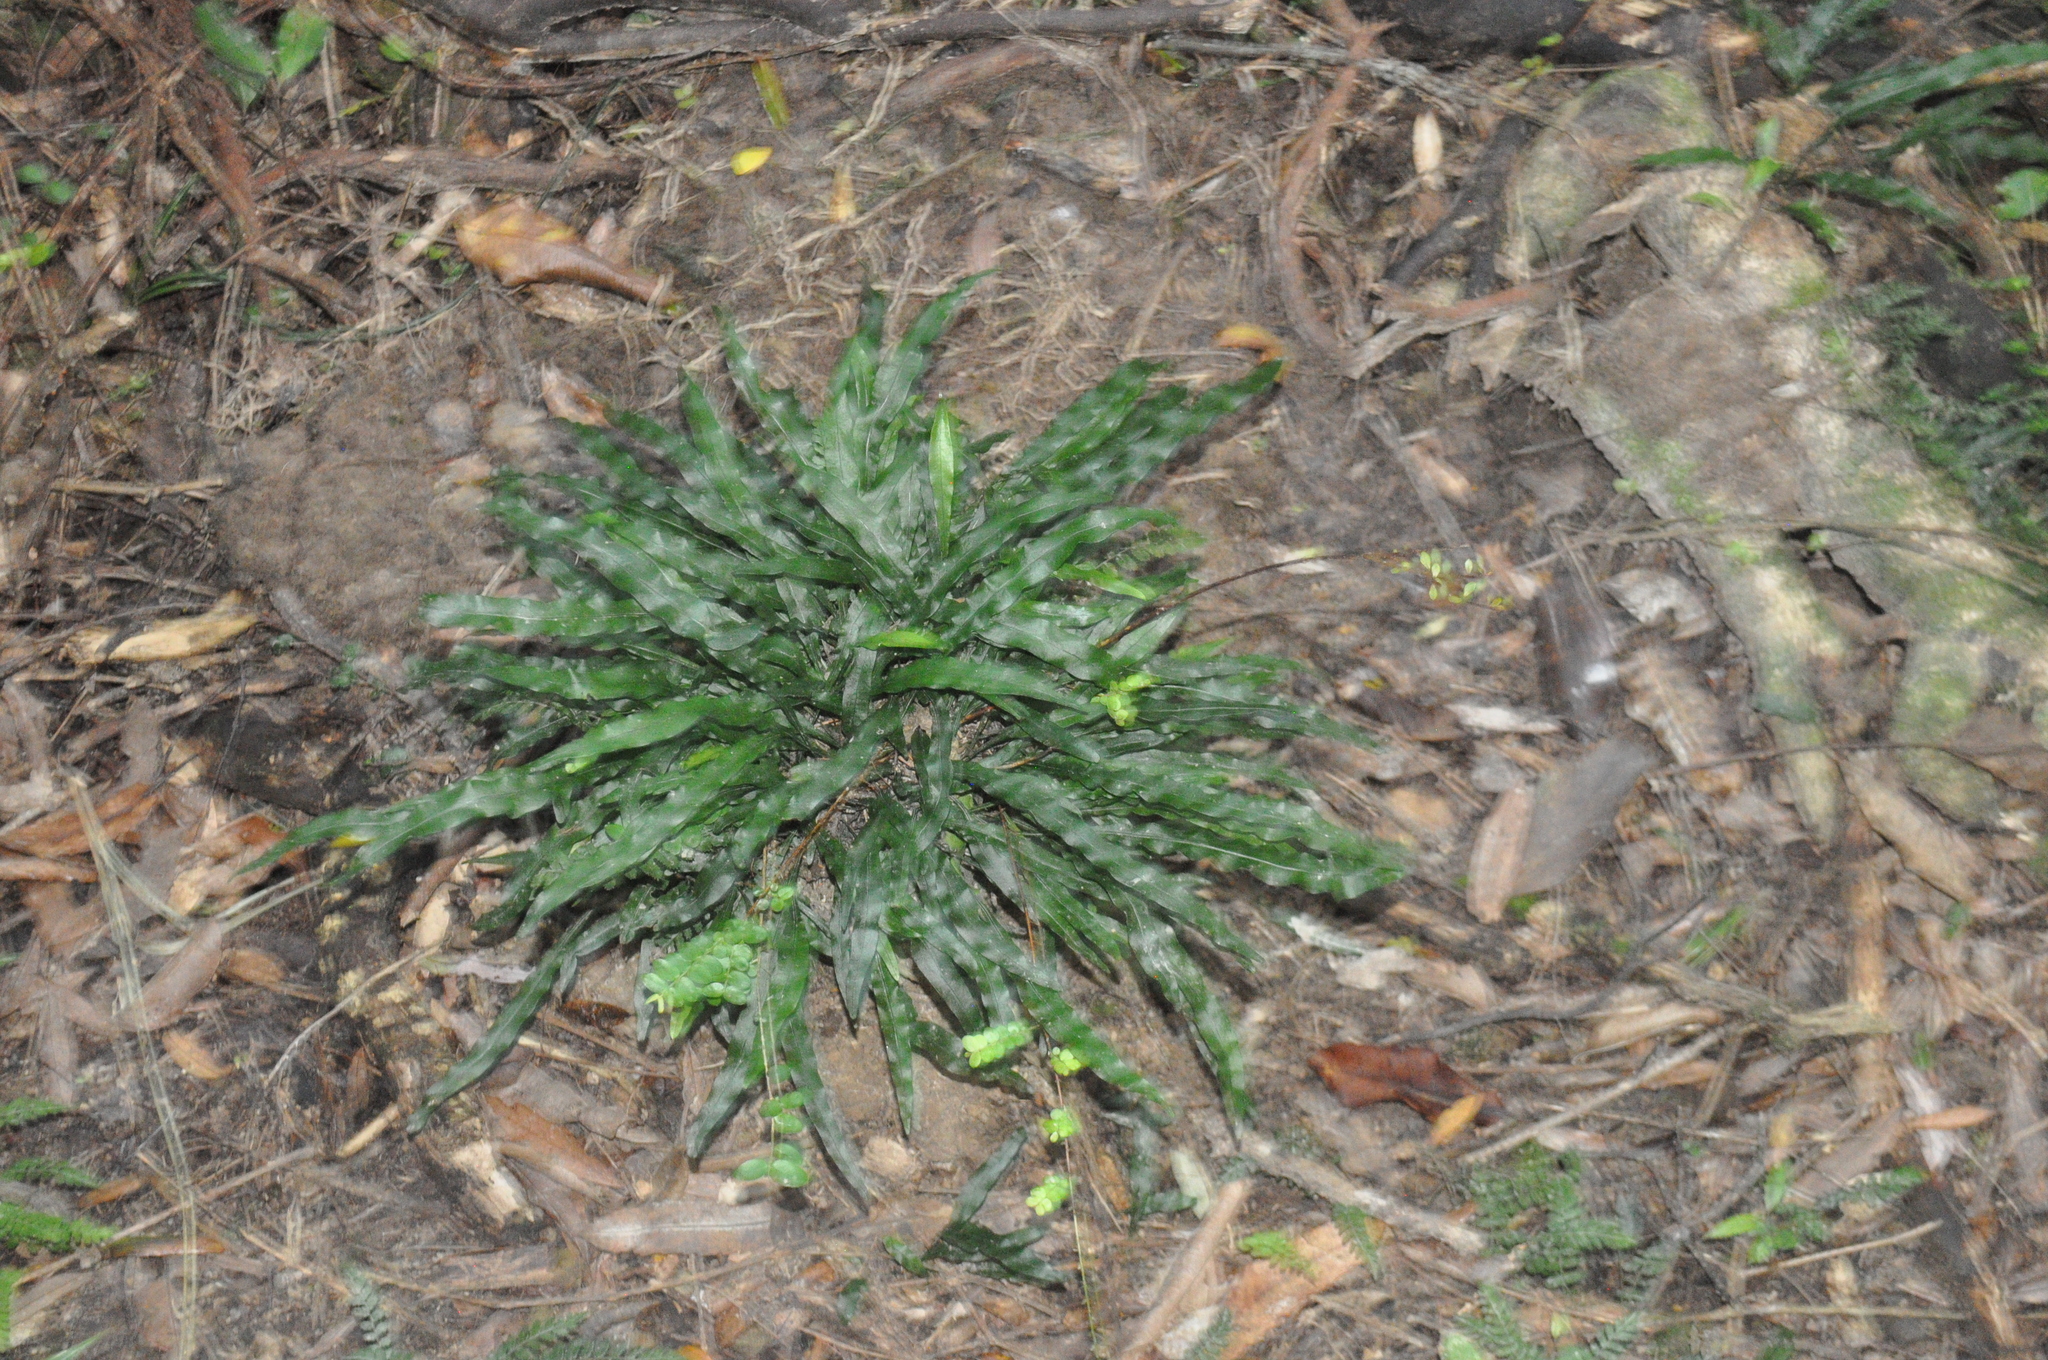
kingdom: Plantae
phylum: Tracheophyta
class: Polypodiopsida
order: Polypodiales
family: Polypodiaceae
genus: Lecanopteris
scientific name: Lecanopteris scandens
